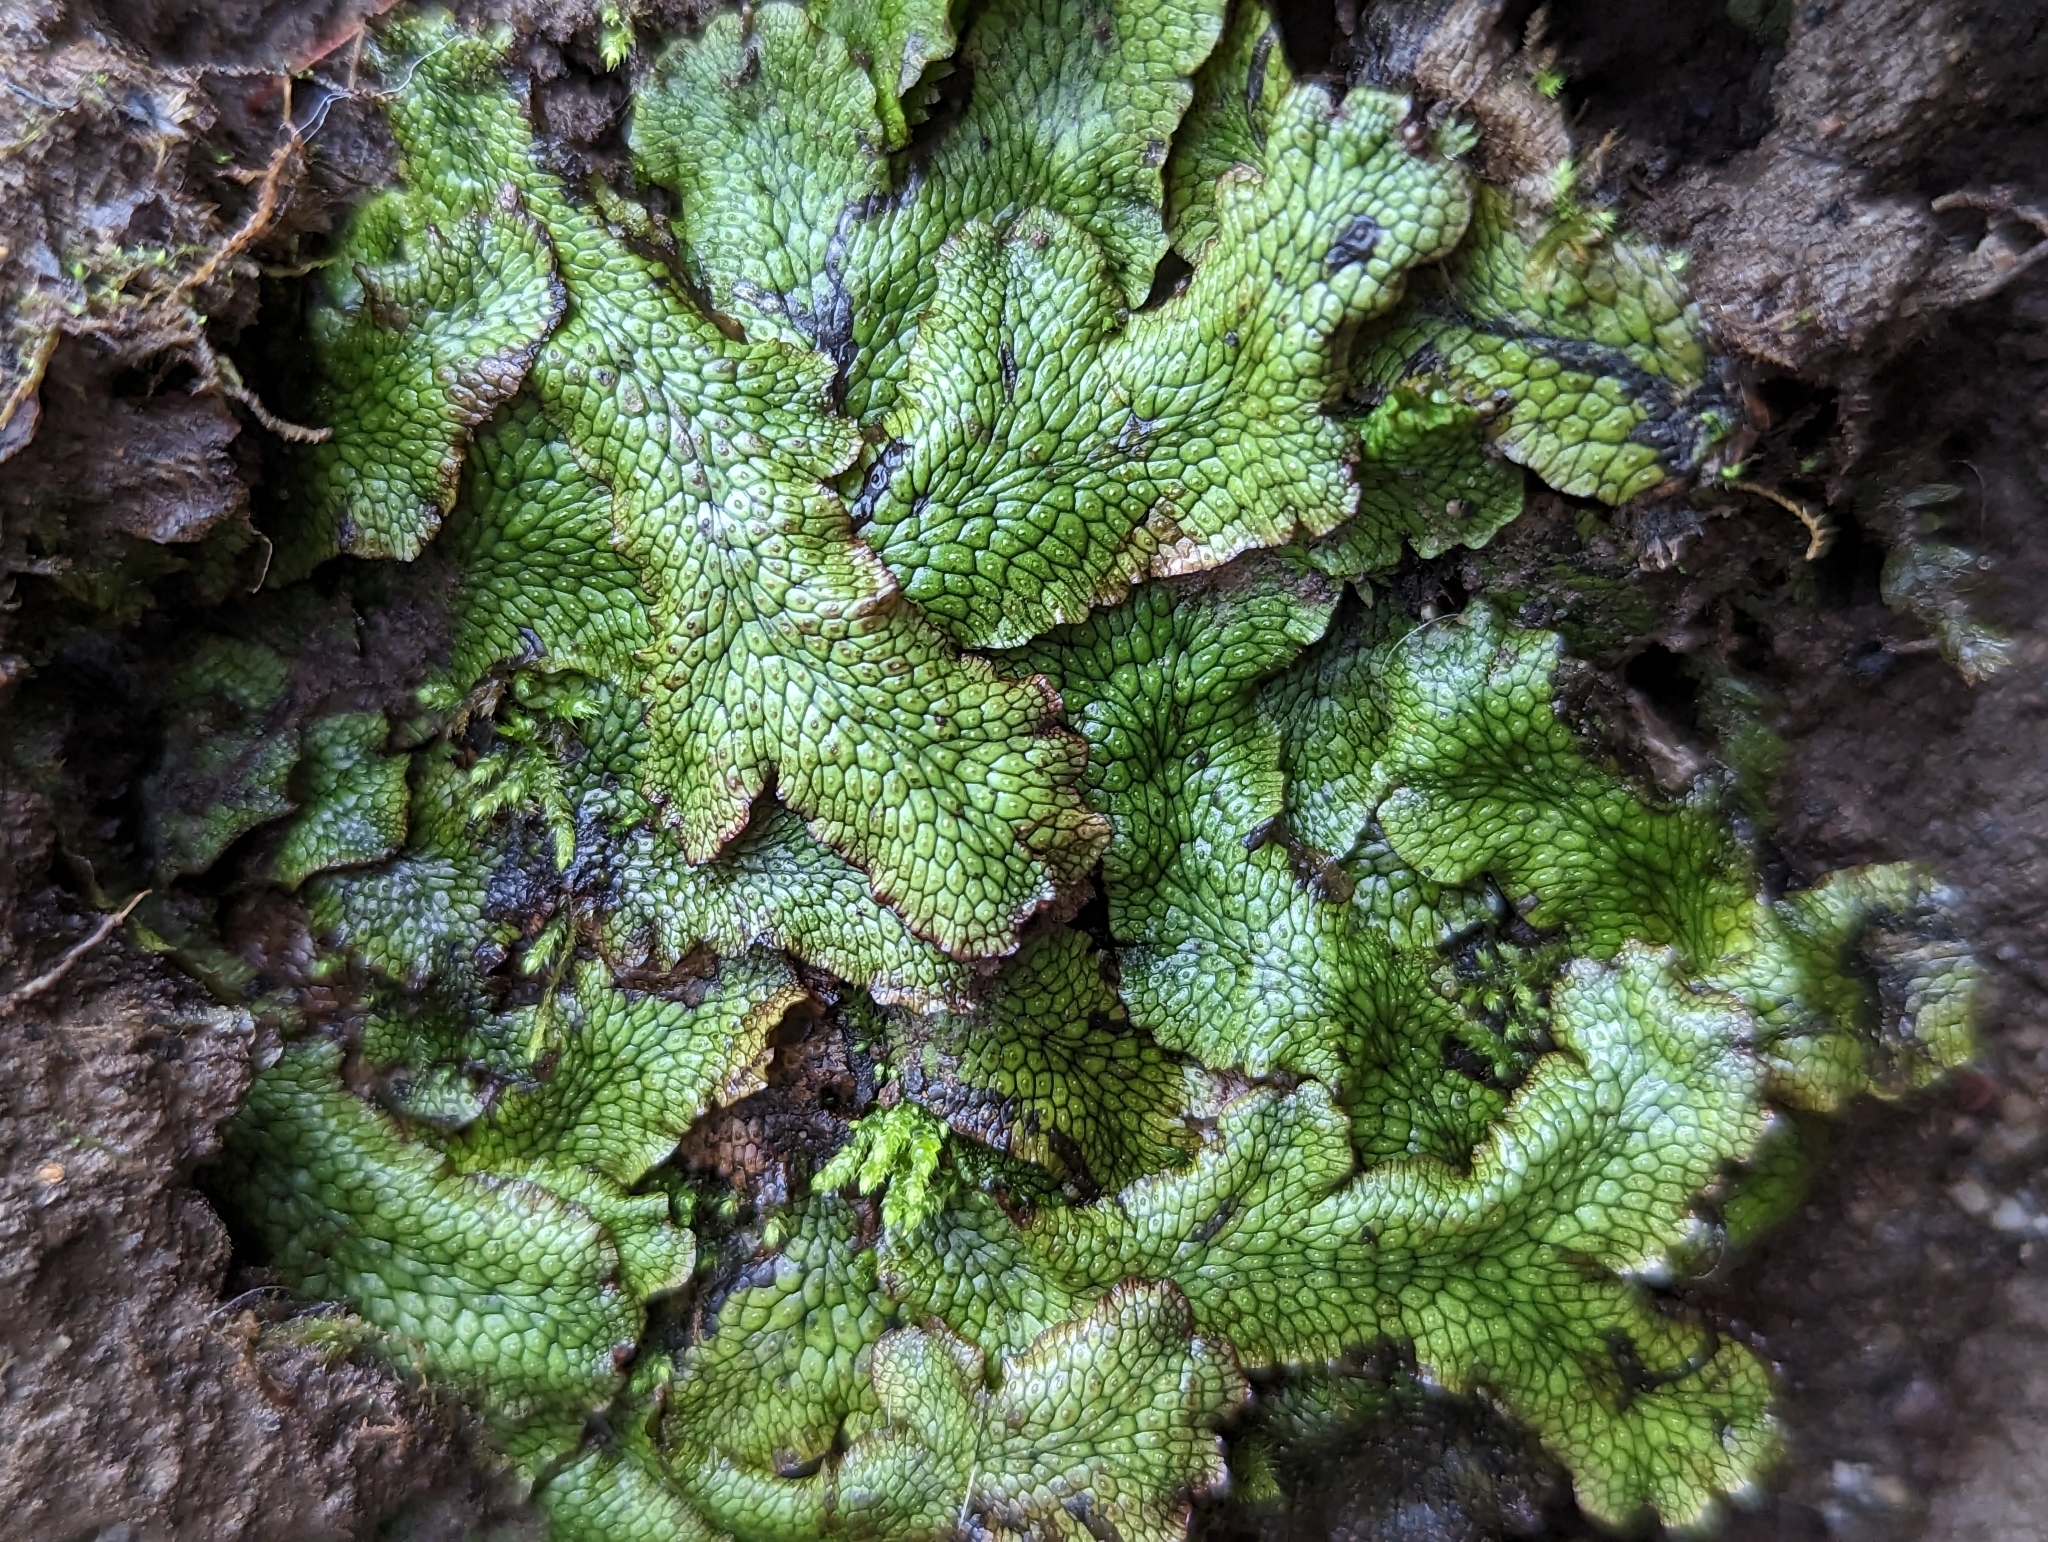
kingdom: Plantae
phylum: Marchantiophyta
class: Marchantiopsida
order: Marchantiales
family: Conocephalaceae
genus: Conocephalum
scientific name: Conocephalum salebrosum
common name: Cat-tongue liverwort
